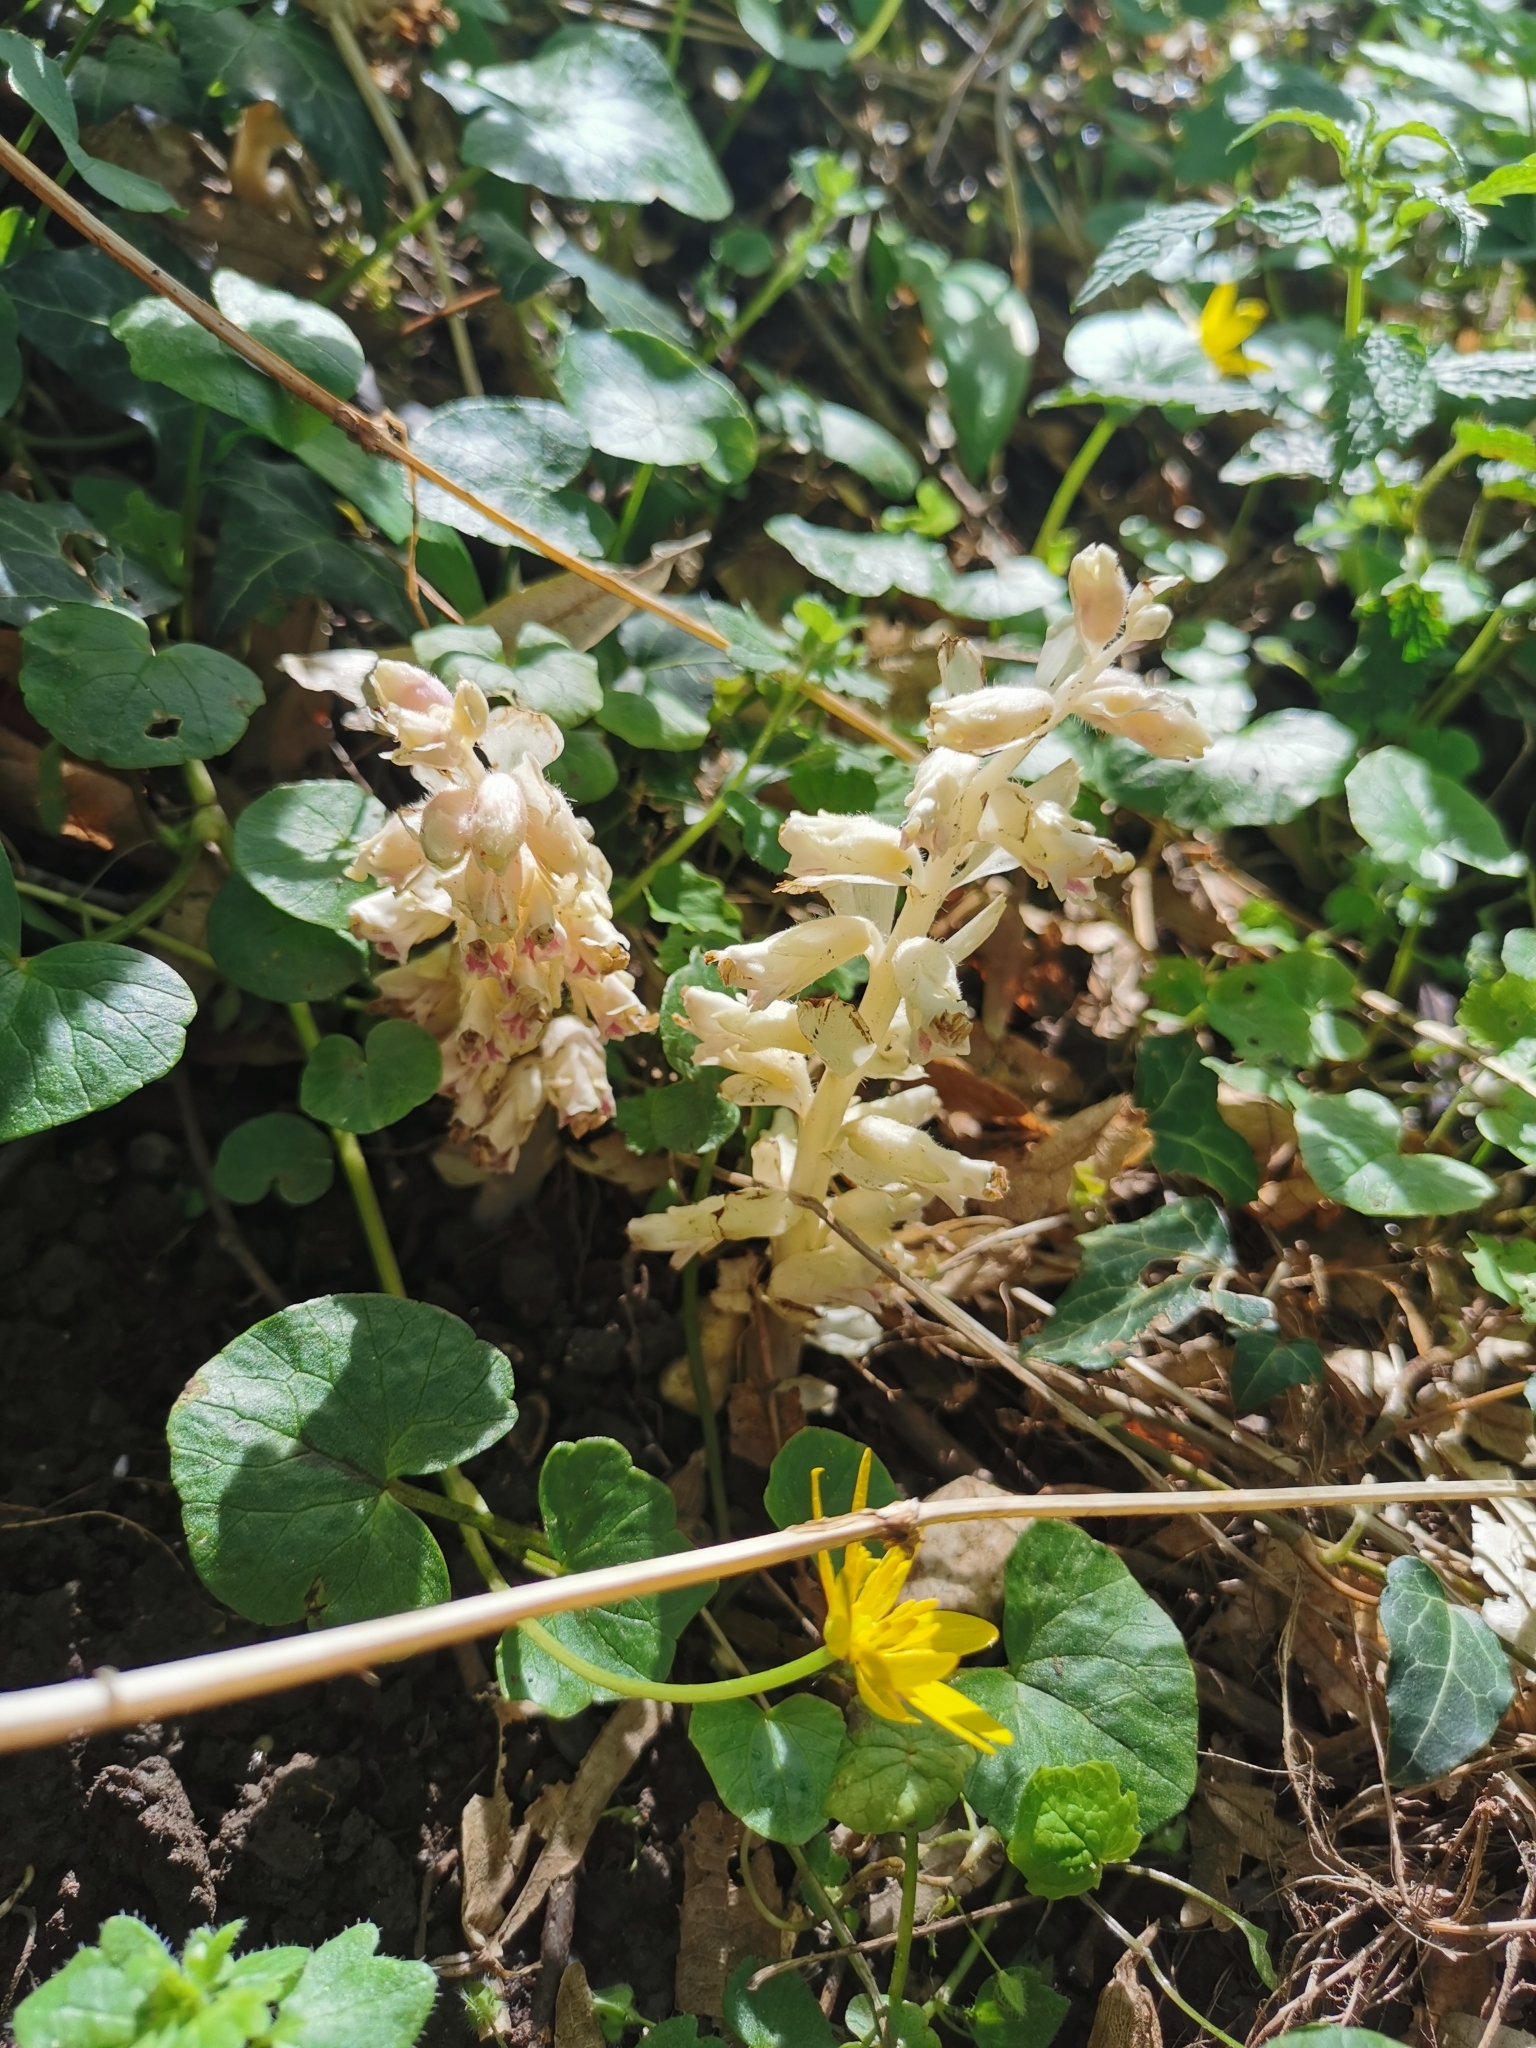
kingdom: Plantae
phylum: Tracheophyta
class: Magnoliopsida
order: Lamiales
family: Orobanchaceae
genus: Lathraea
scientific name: Lathraea squamaria
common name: Toothwort
